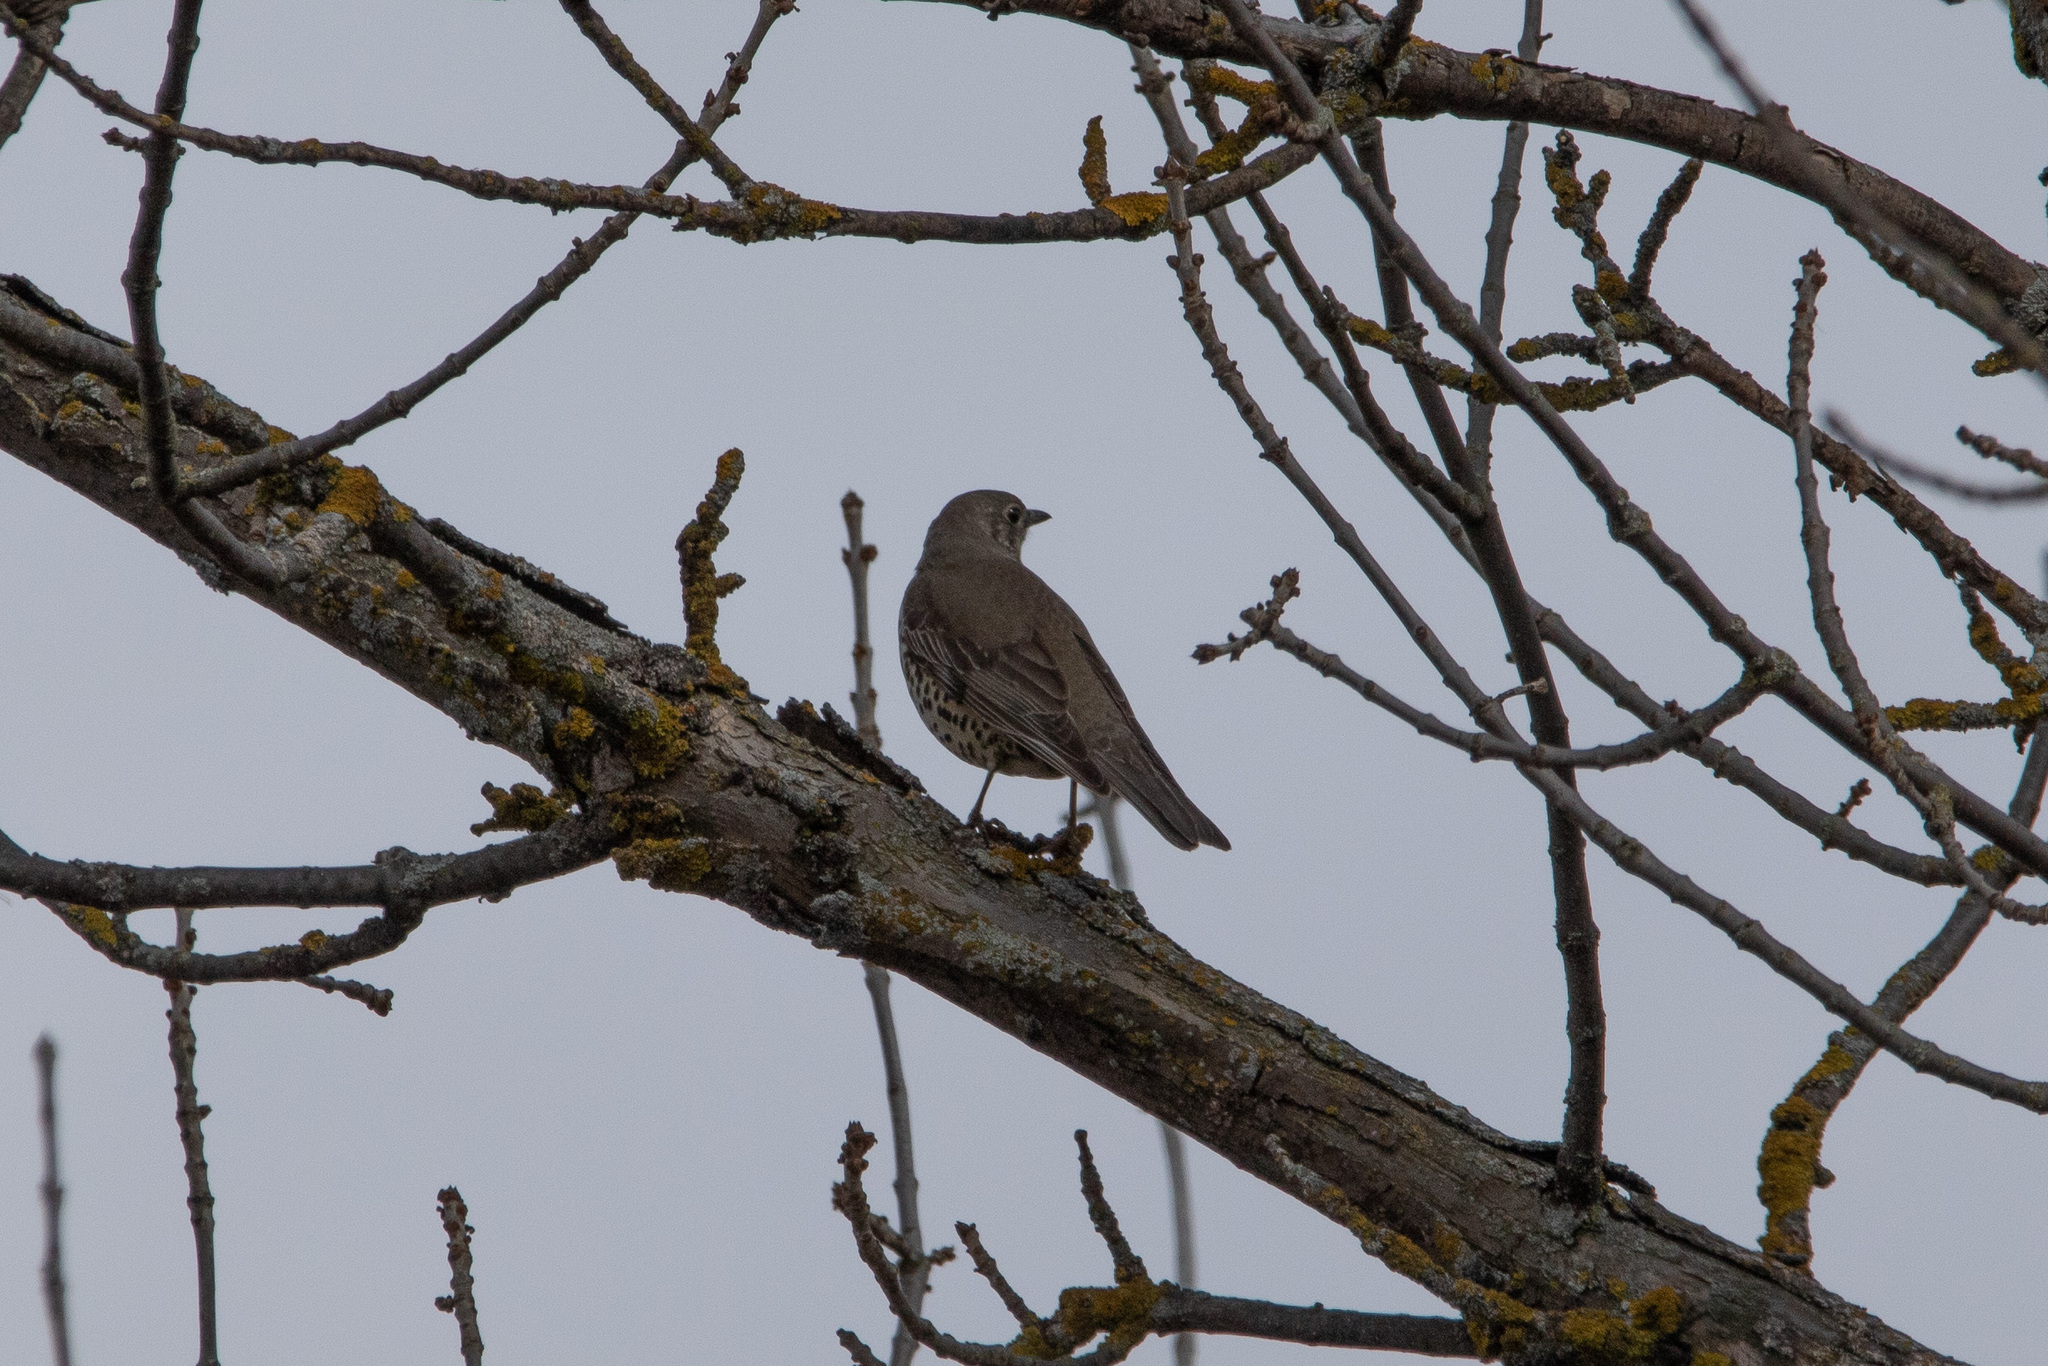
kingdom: Animalia
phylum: Chordata
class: Aves
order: Passeriformes
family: Turdidae
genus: Turdus
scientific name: Turdus viscivorus
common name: Mistle thrush
